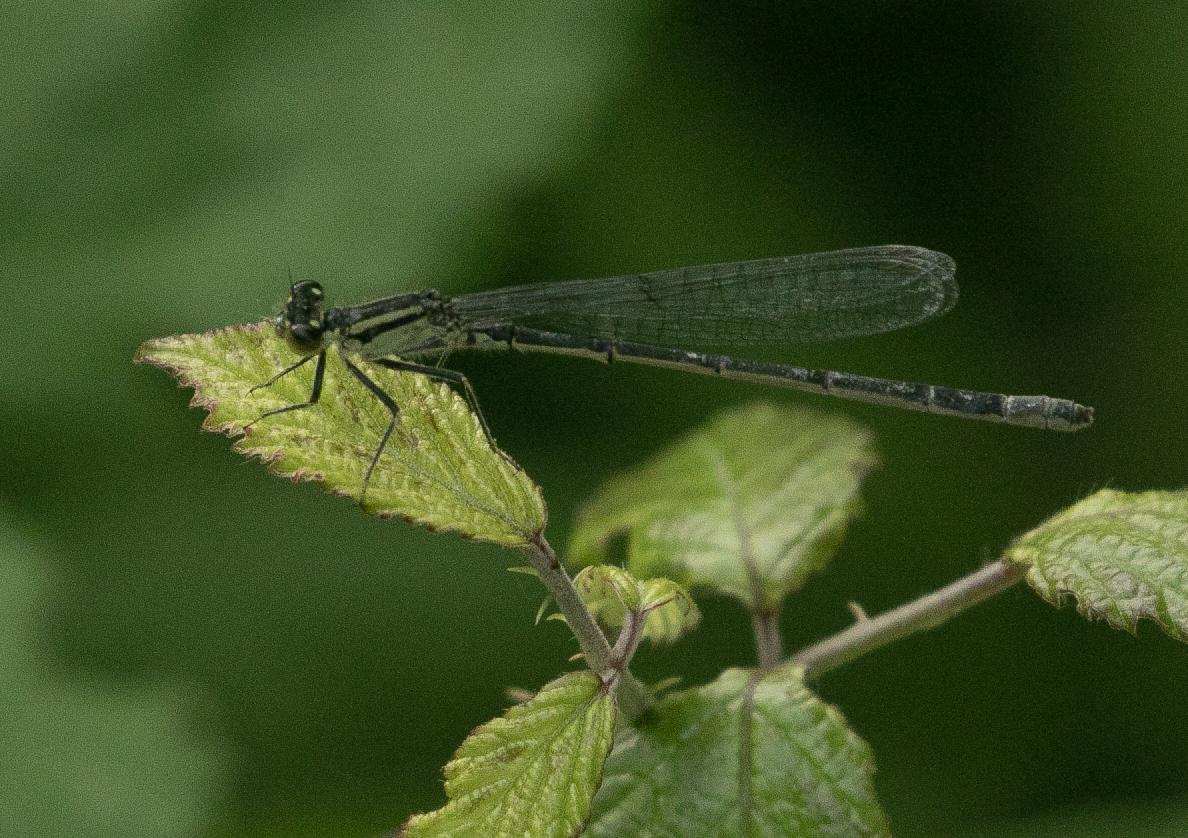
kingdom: Animalia
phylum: Arthropoda
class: Insecta
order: Odonata
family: Coenagrionidae
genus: Ischnura
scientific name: Ischnura elegans
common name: Blue-tailed damselfly
